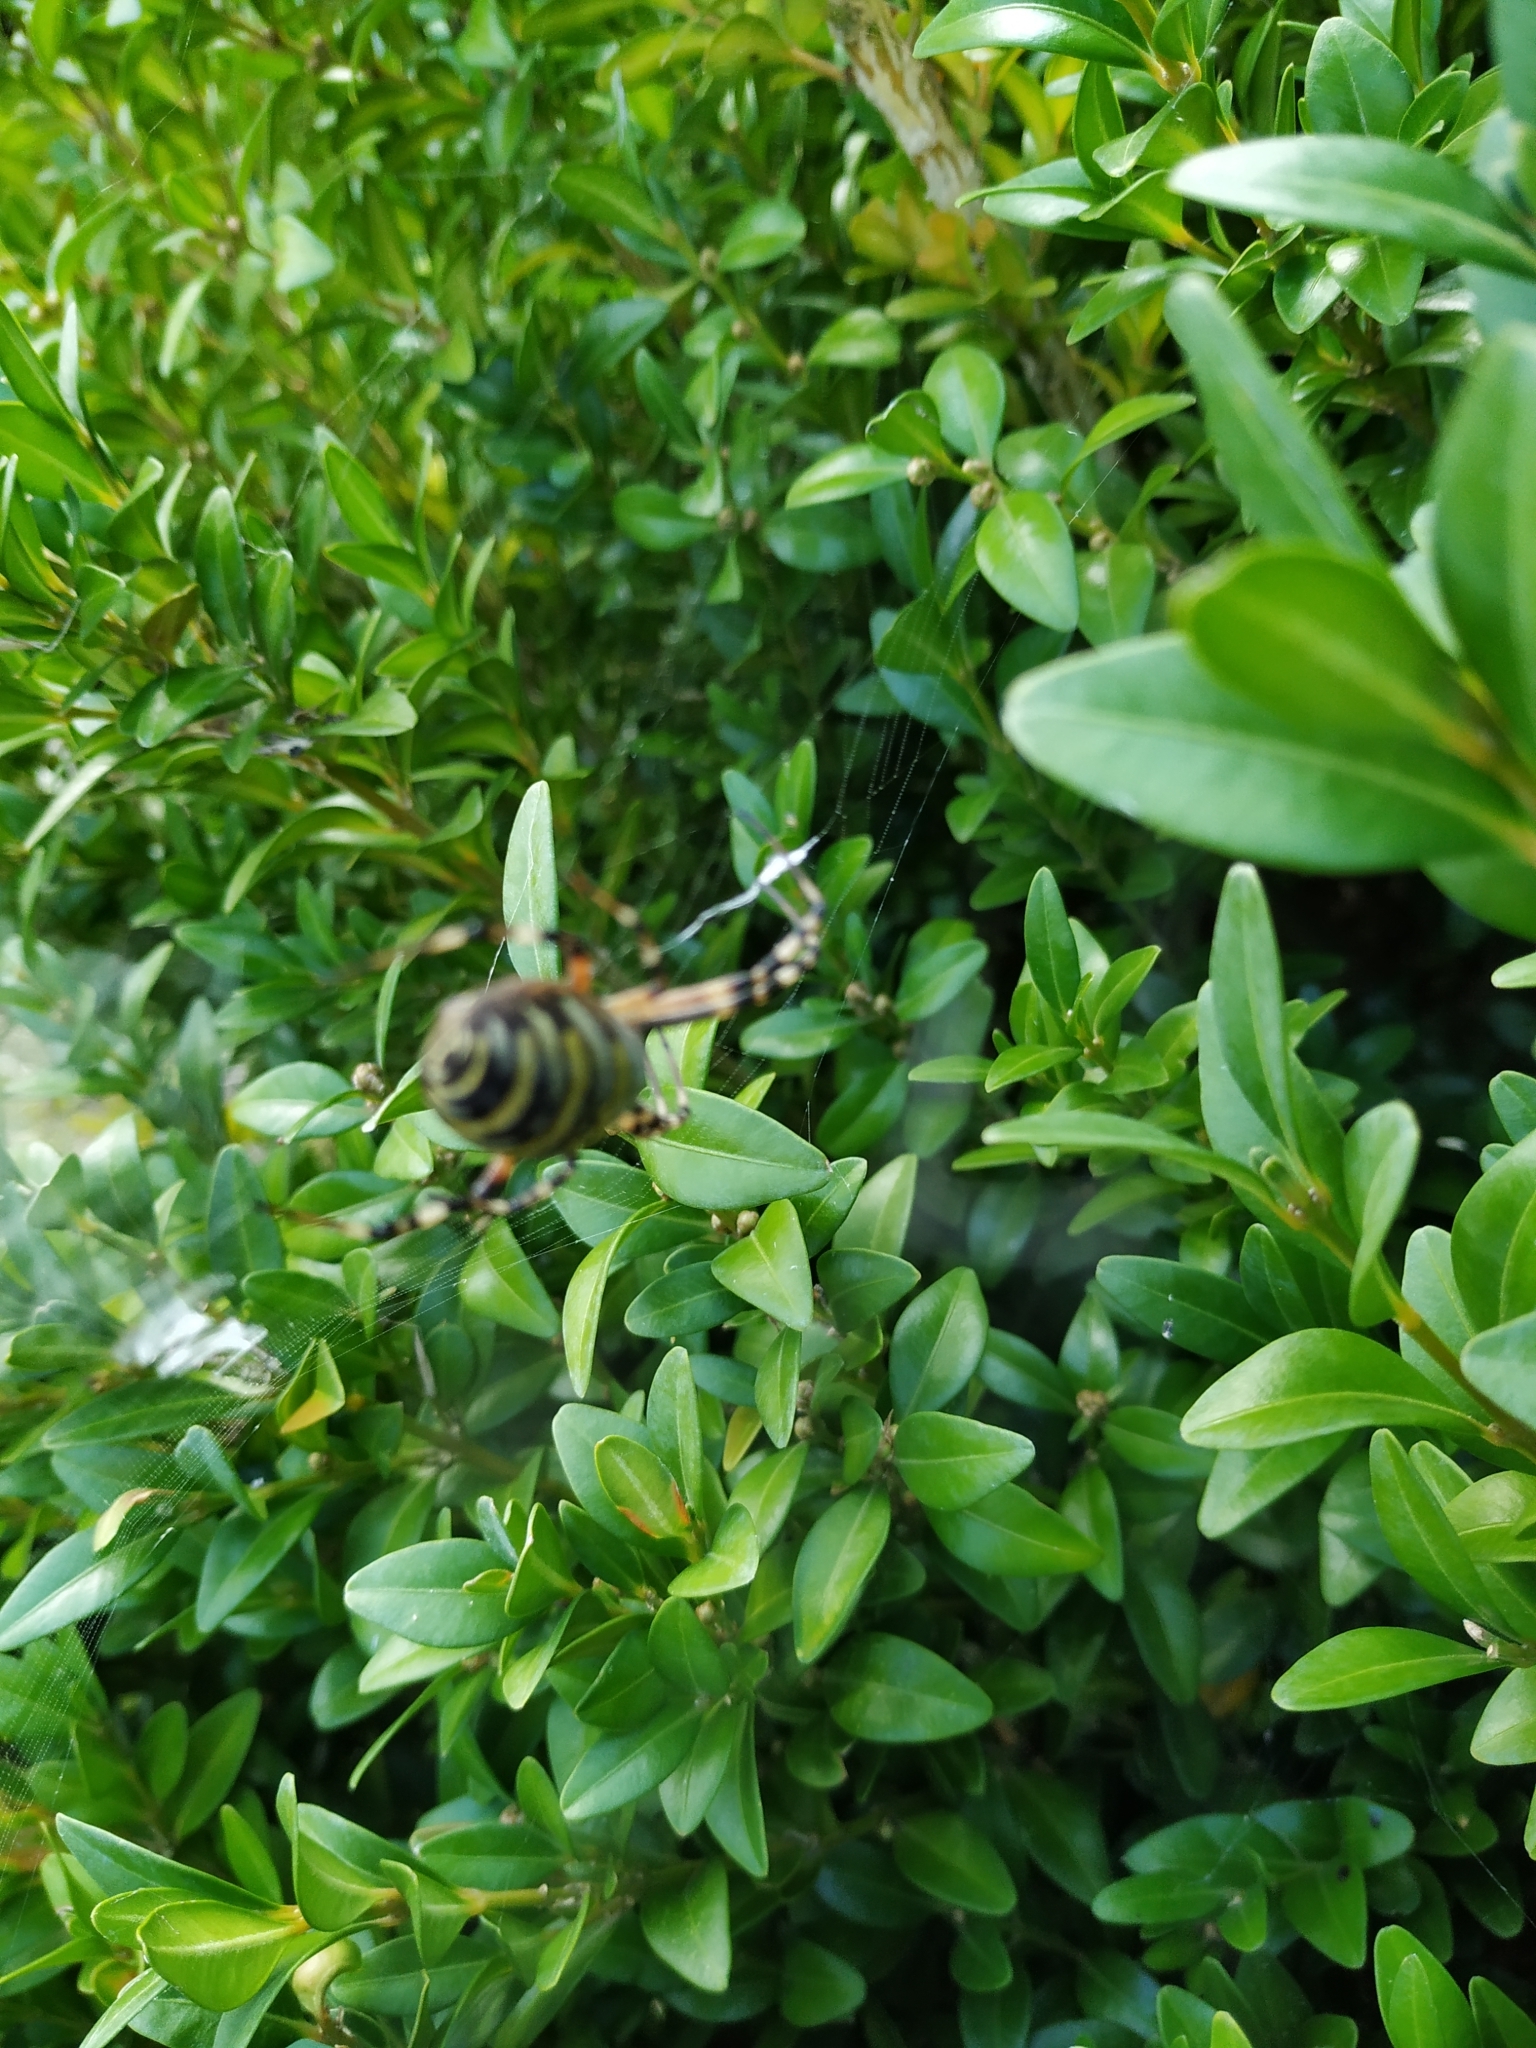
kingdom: Animalia
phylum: Arthropoda
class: Arachnida
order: Araneae
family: Araneidae
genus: Argiope
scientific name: Argiope bruennichi
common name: Wasp spider
